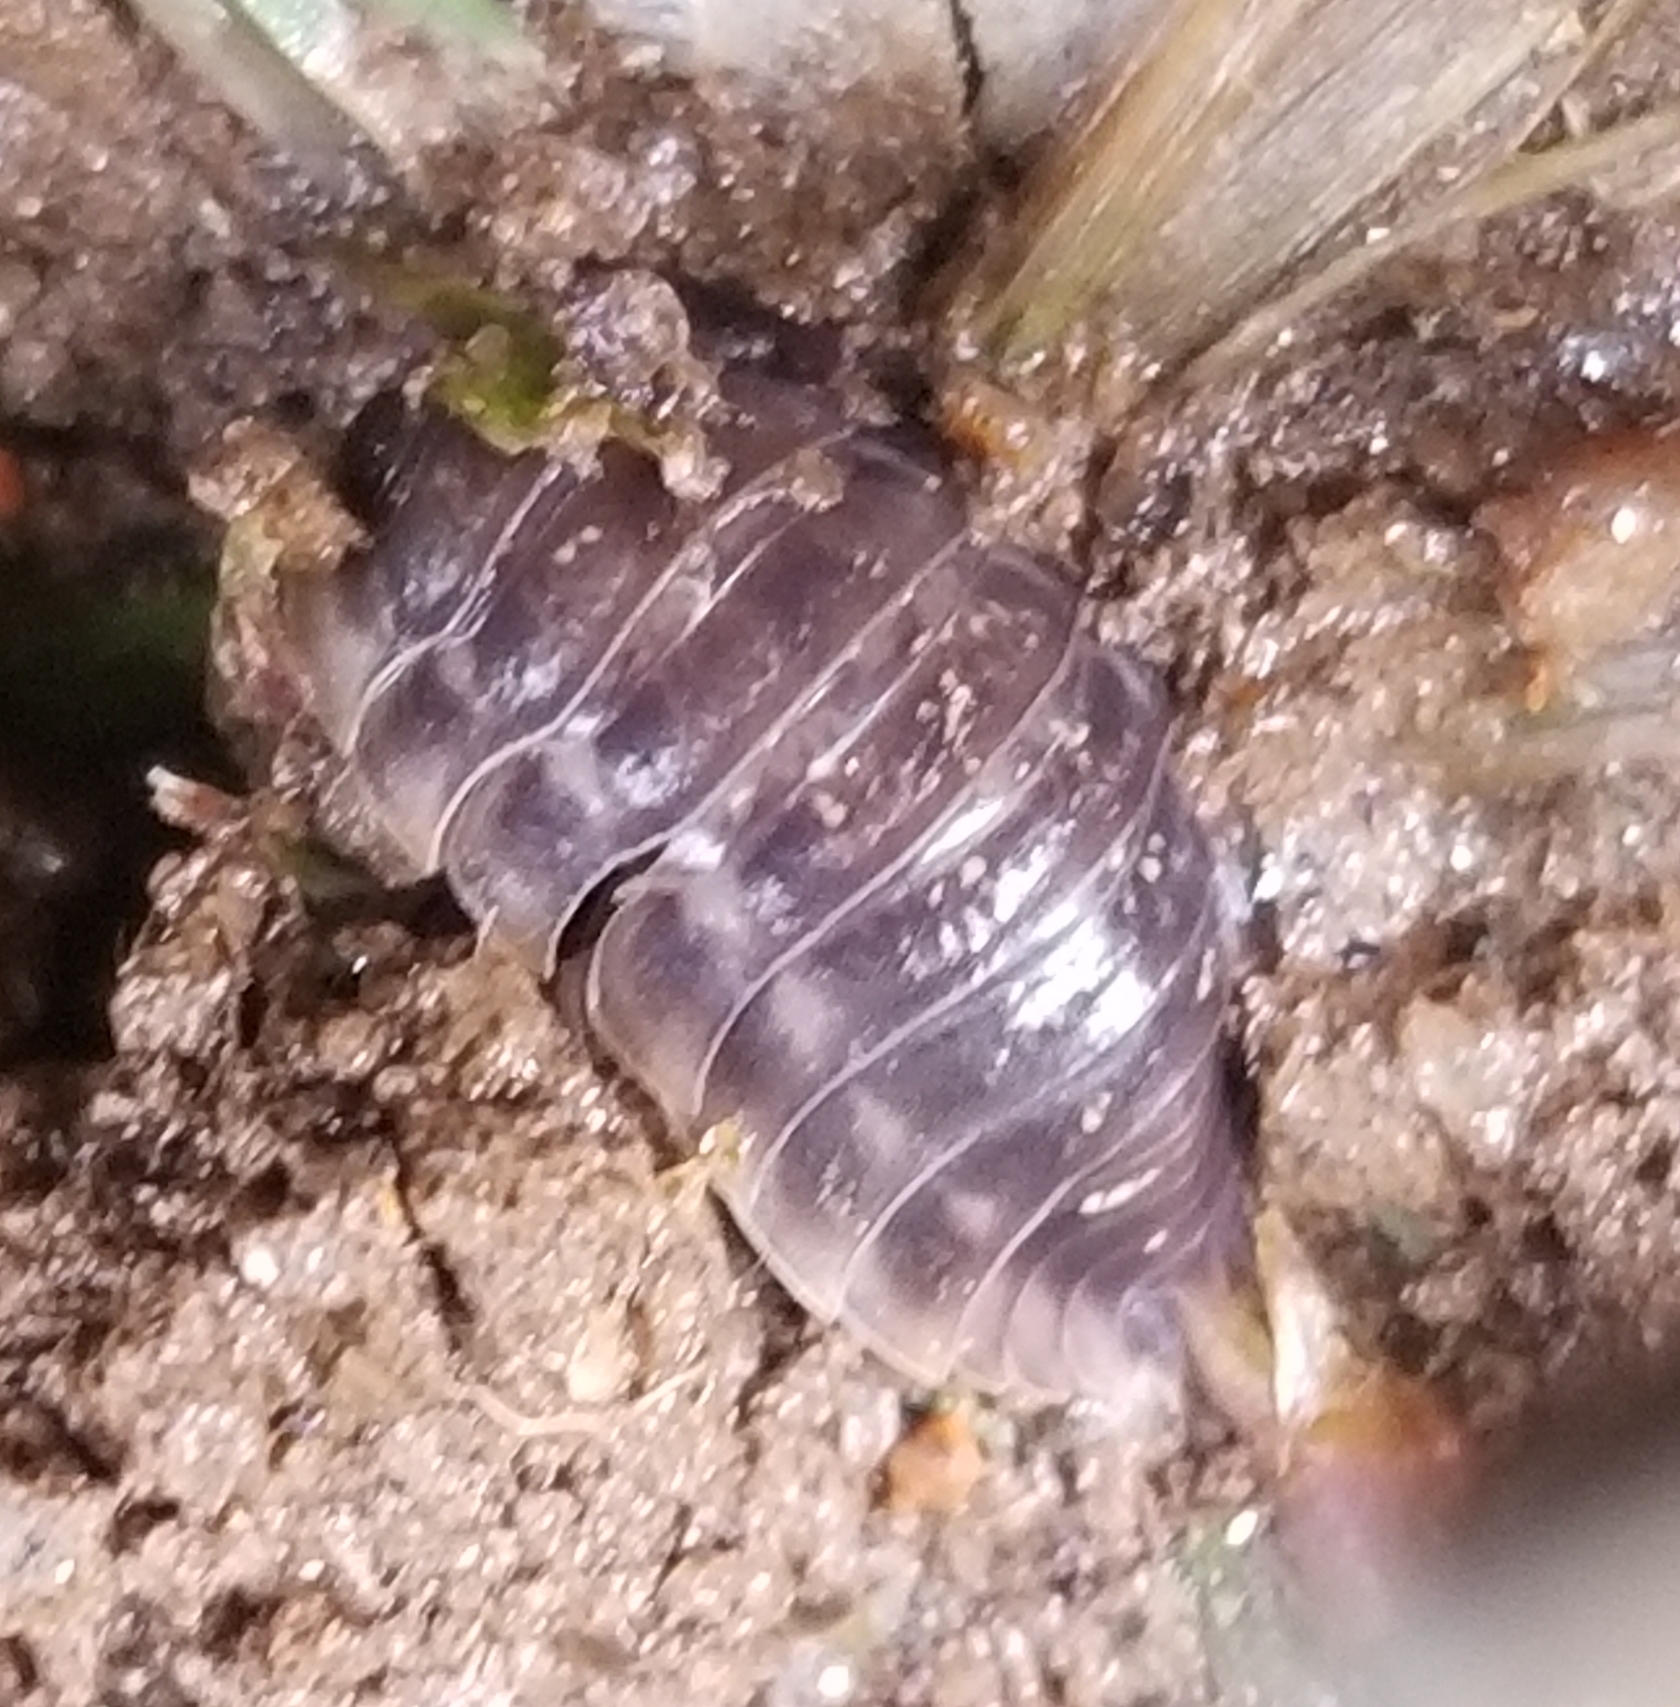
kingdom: Animalia
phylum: Arthropoda
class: Malacostraca
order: Isopoda
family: Oniscidae
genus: Oniscus
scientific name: Oniscus asellus
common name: Common shiny woodlouse
